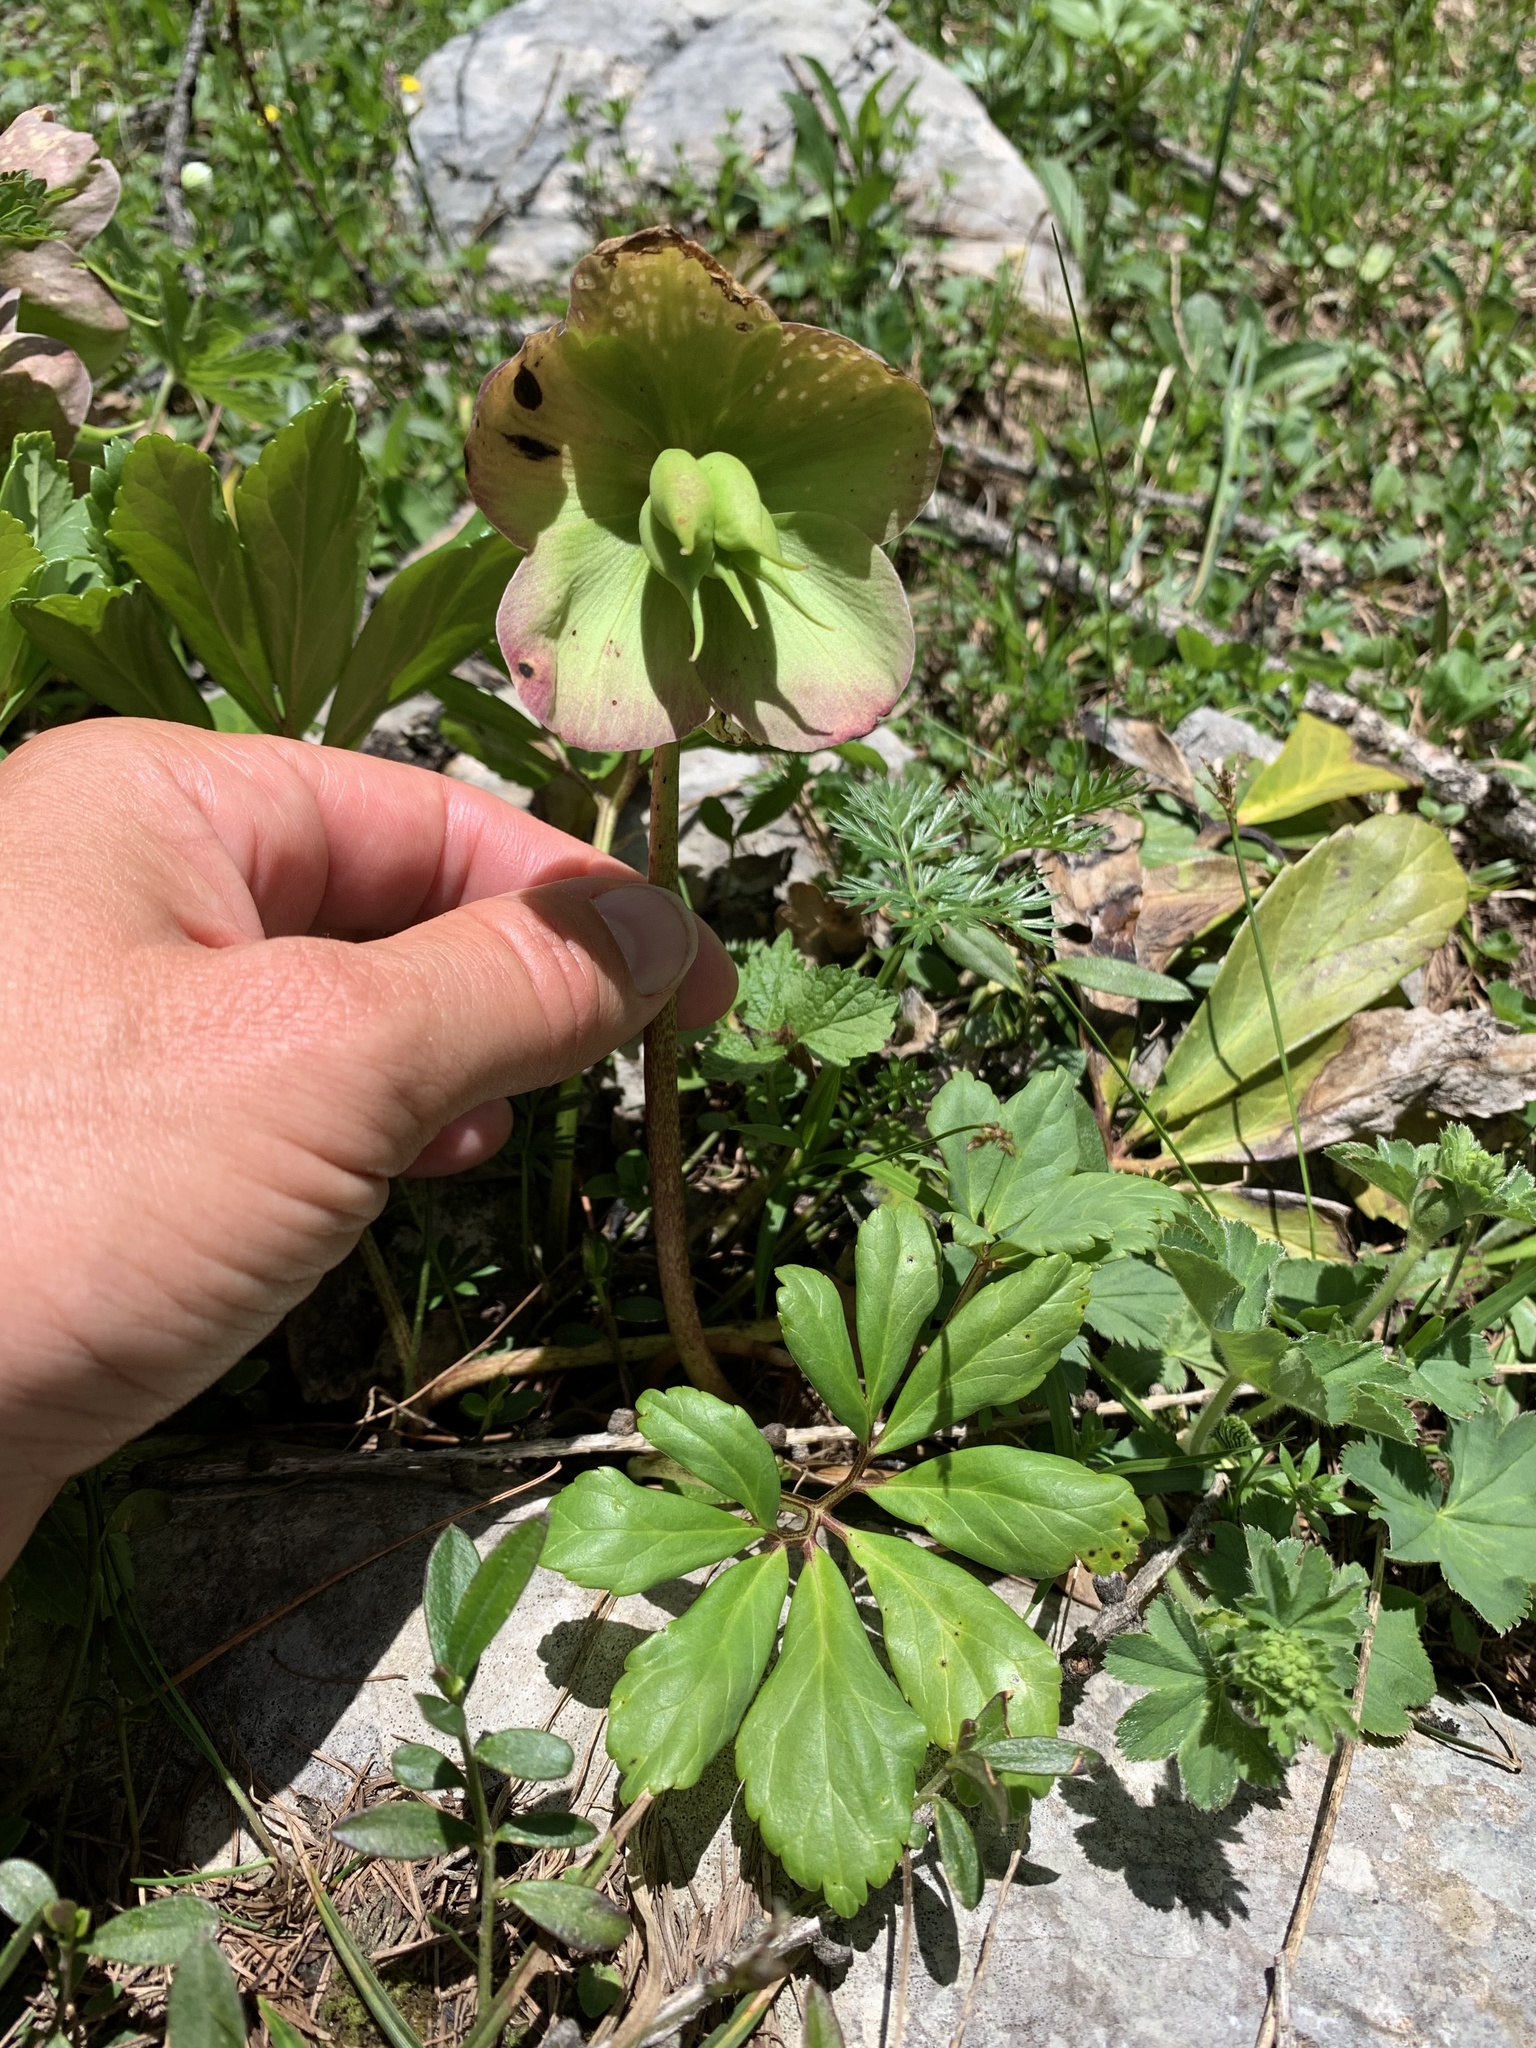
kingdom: Plantae
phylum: Tracheophyta
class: Magnoliopsida
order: Ranunculales
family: Ranunculaceae
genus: Helleborus
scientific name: Helleborus niger
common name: Black hellebore
